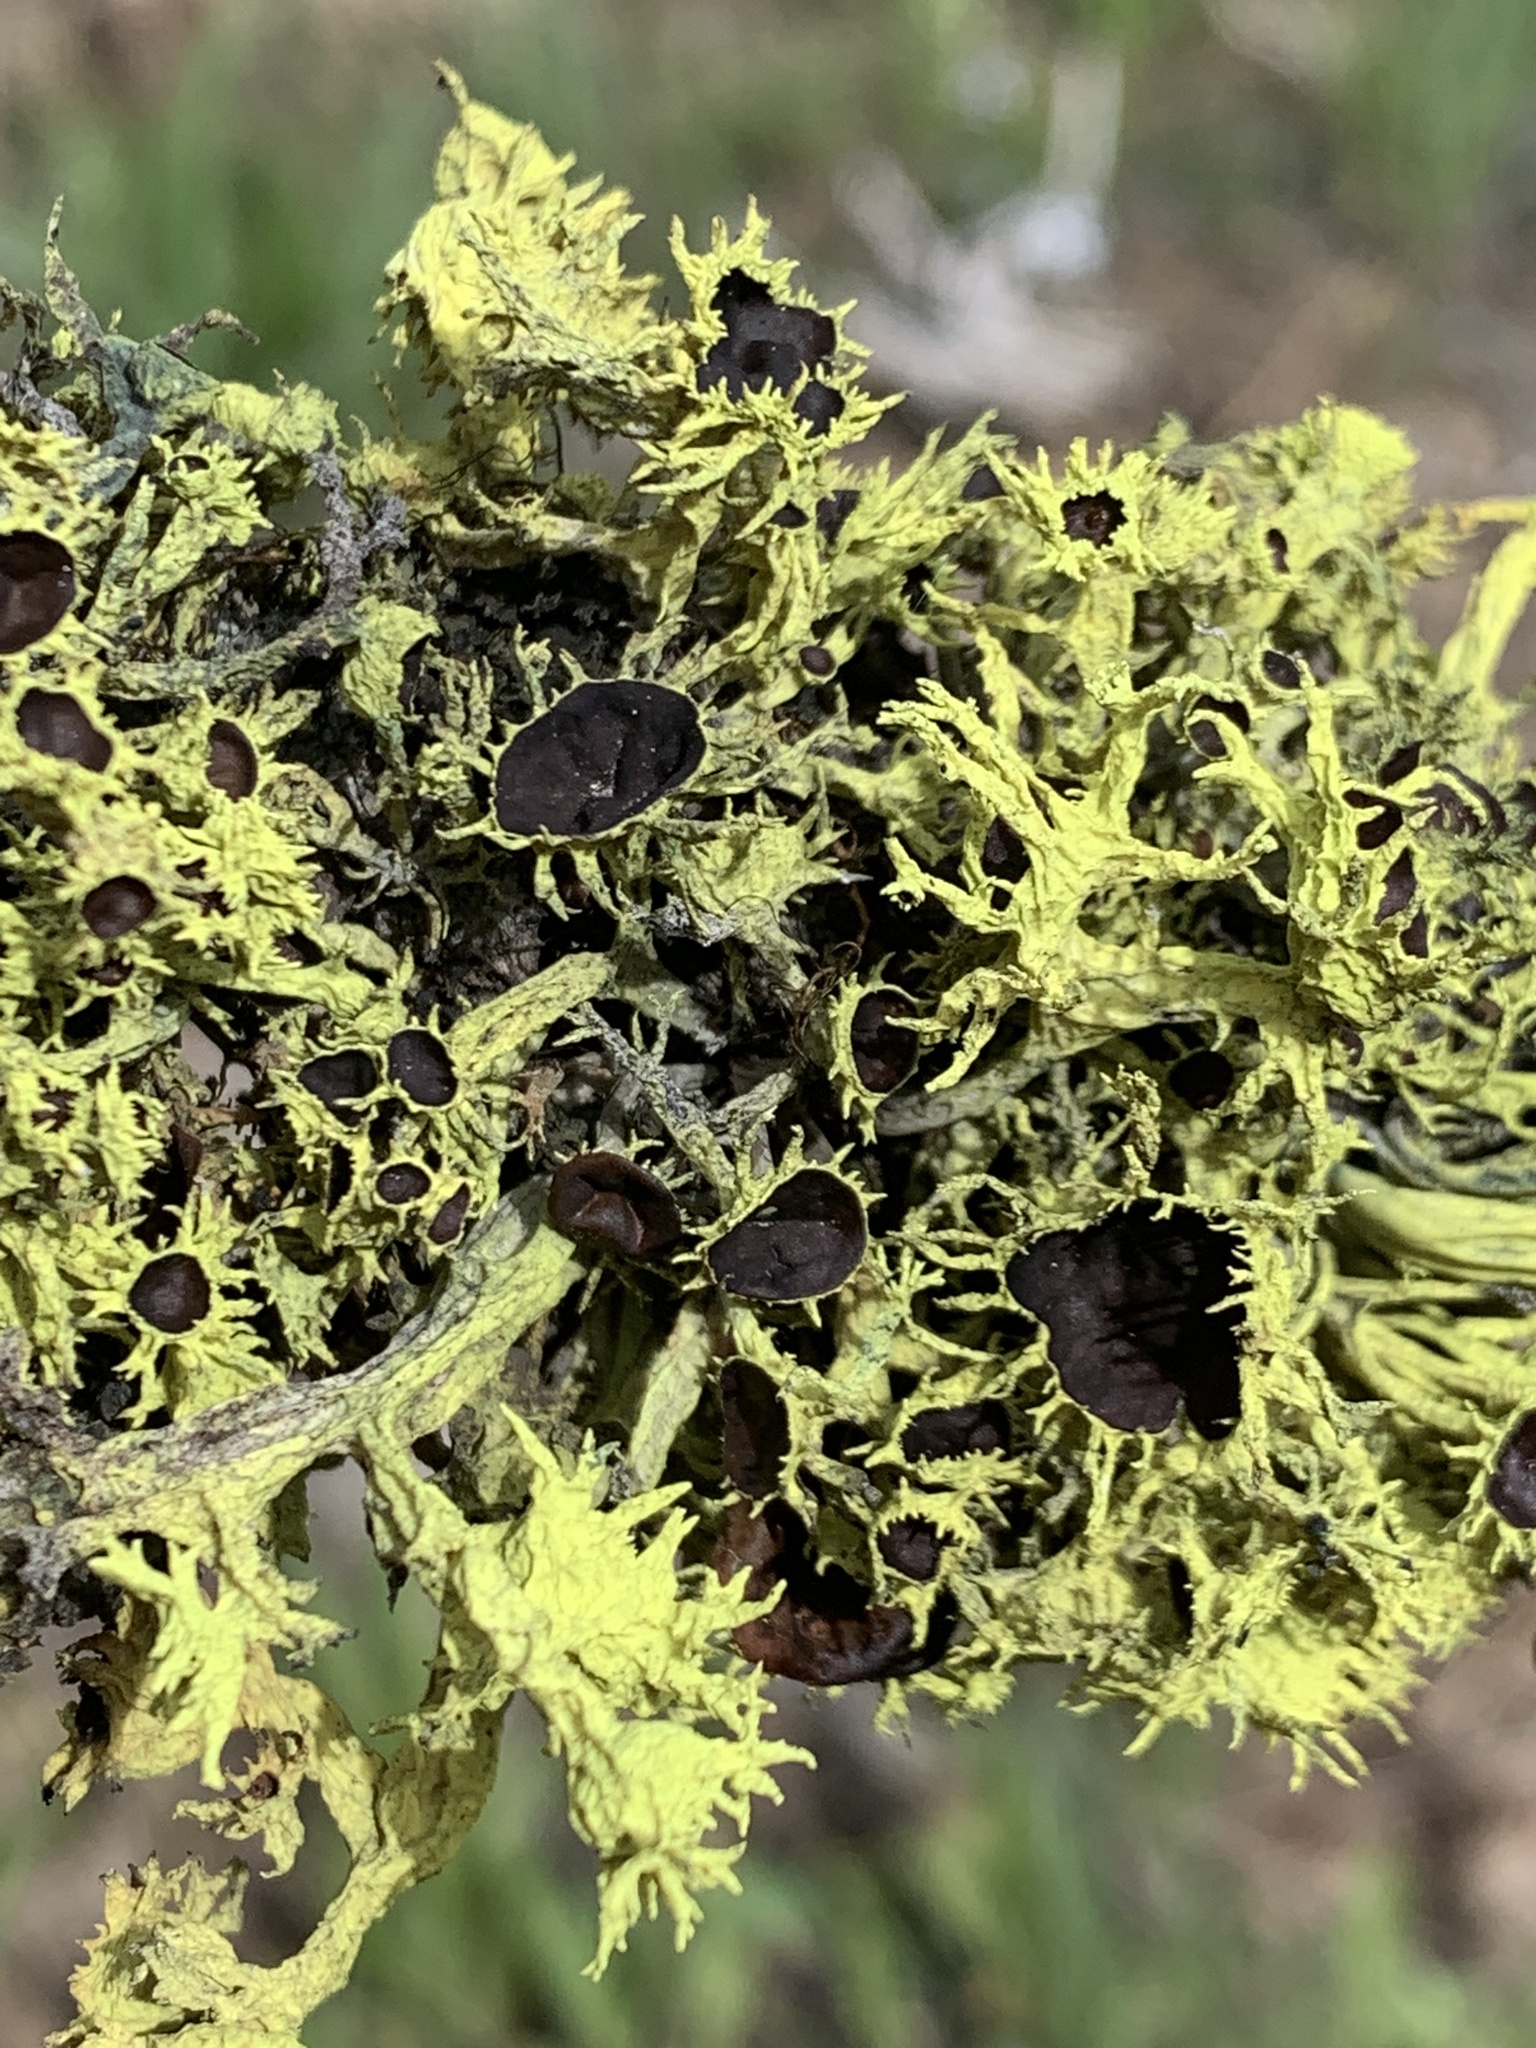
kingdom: Fungi
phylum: Ascomycota
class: Lecanoromycetes
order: Lecanorales
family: Parmeliaceae
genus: Letharia
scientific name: Letharia columbiana
